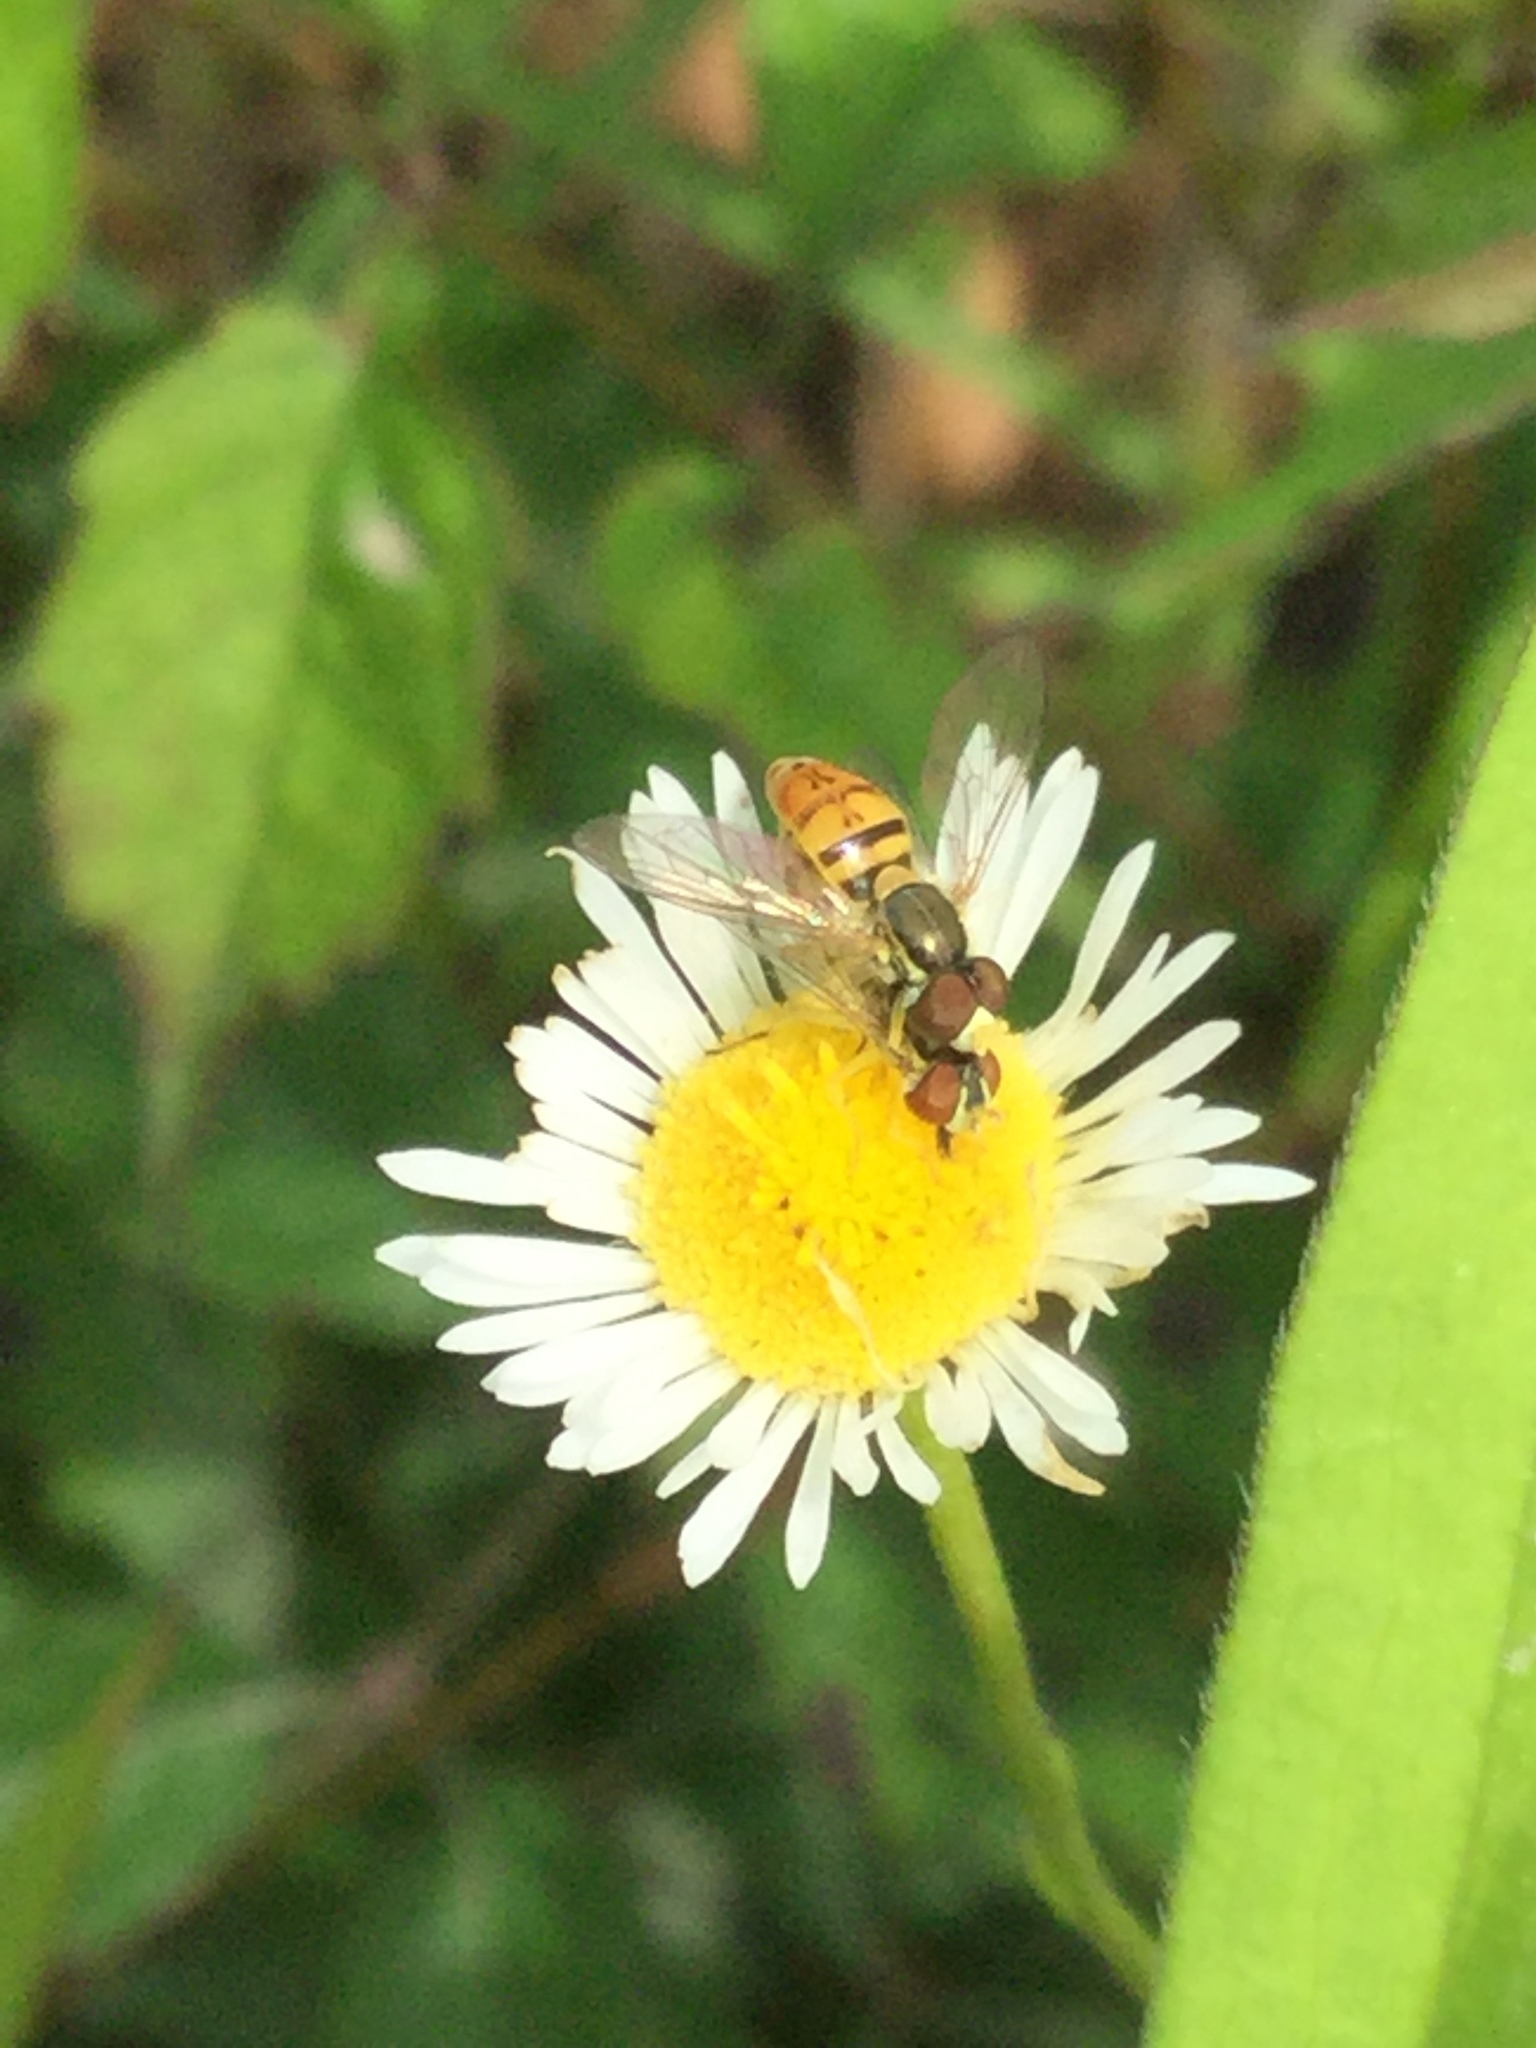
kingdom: Animalia
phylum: Arthropoda
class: Insecta
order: Diptera
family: Syrphidae
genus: Toxomerus
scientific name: Toxomerus marginatus
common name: Syrphid fly
